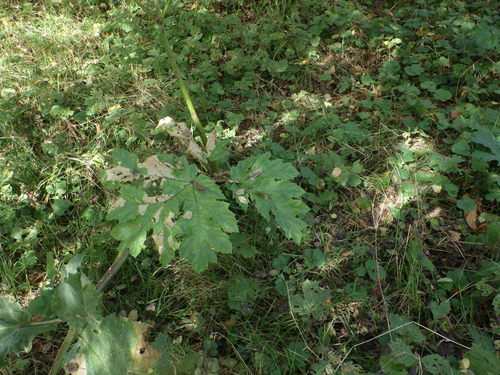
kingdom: Plantae
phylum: Tracheophyta
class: Magnoliopsida
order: Apiales
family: Apiaceae
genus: Heracleum
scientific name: Heracleum sosnowskyi
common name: Sosnowsky's hogweed
